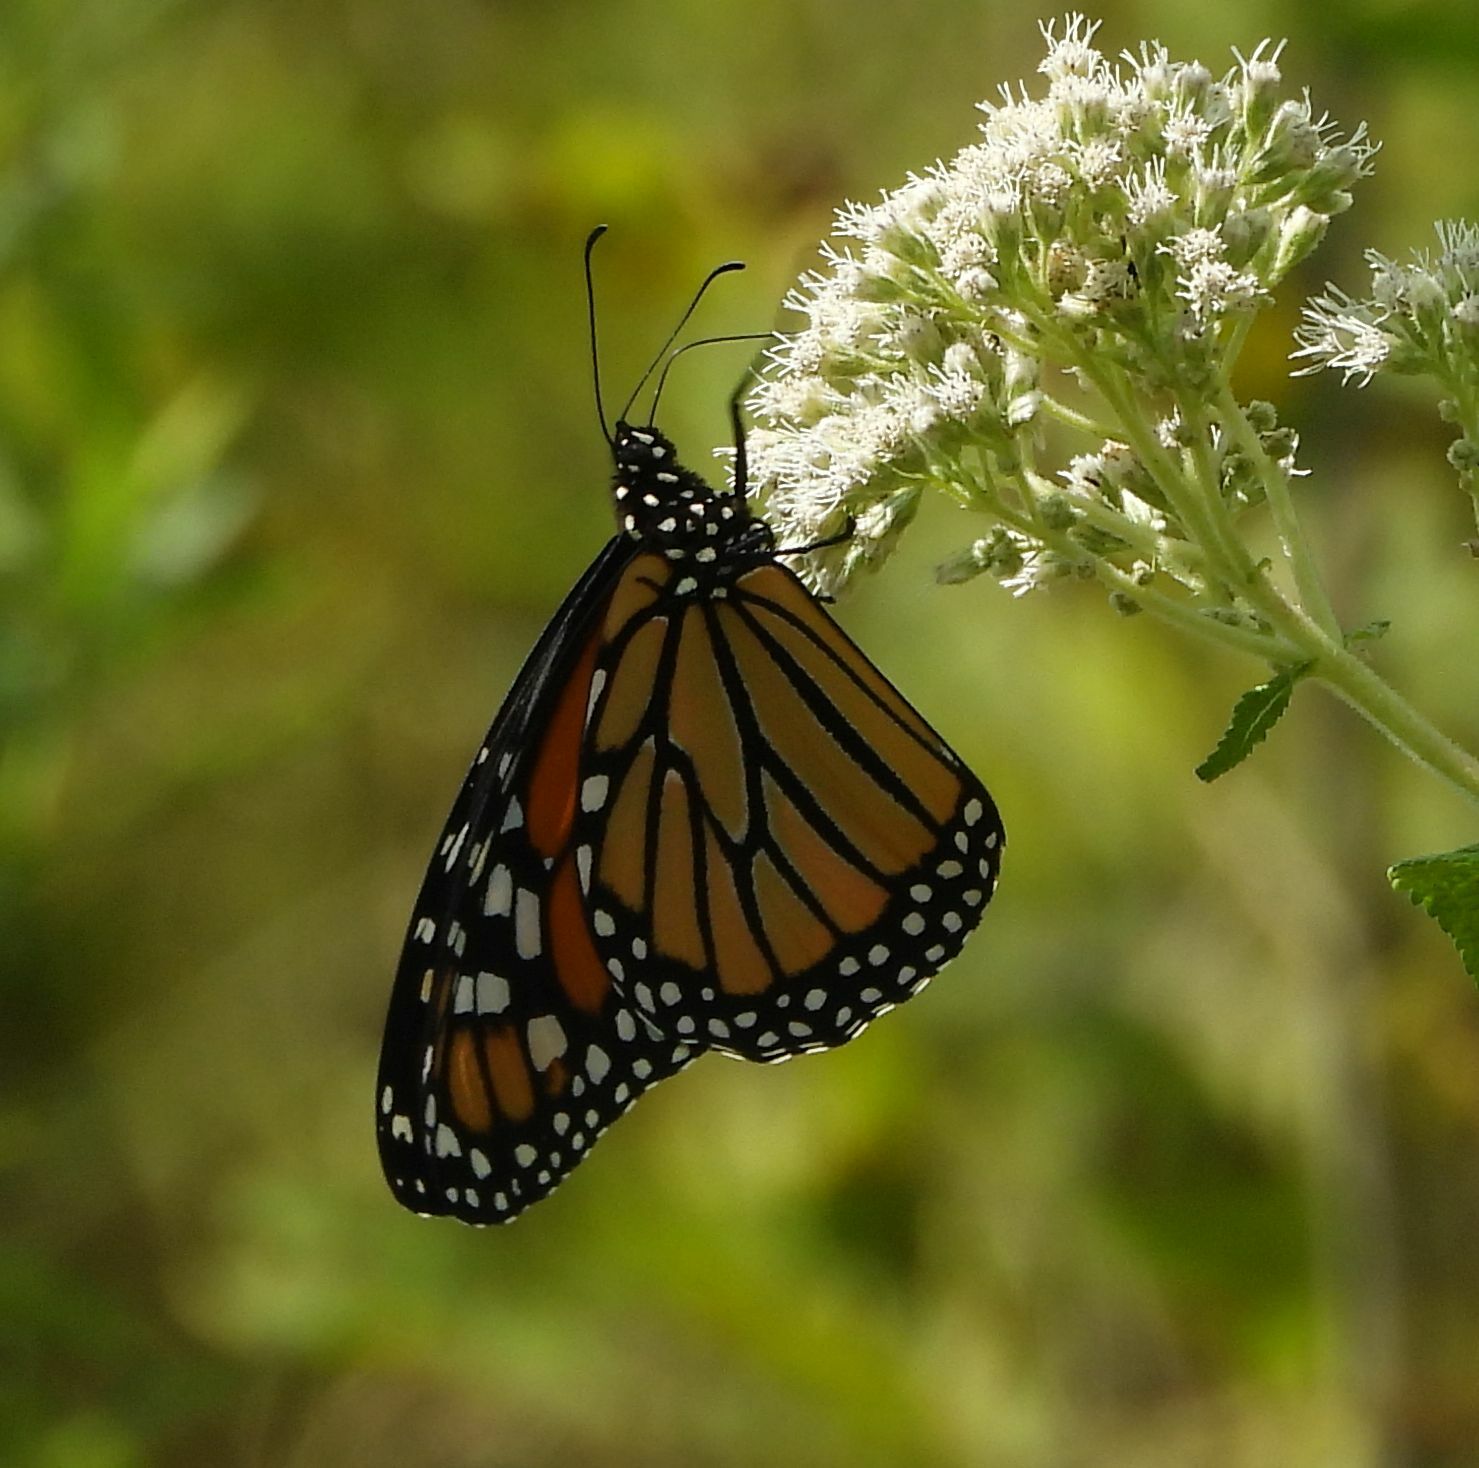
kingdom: Animalia
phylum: Arthropoda
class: Insecta
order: Lepidoptera
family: Nymphalidae
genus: Danaus
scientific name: Danaus plexippus
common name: Monarch
